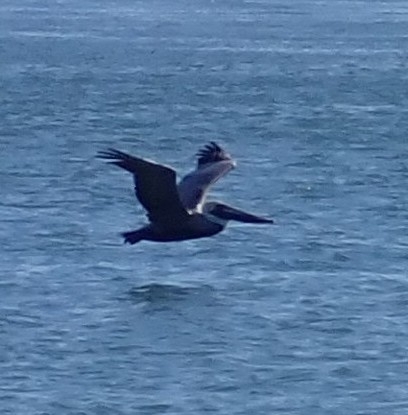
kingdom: Animalia
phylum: Chordata
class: Aves
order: Pelecaniformes
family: Pelecanidae
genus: Pelecanus
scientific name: Pelecanus occidentalis
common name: Brown pelican
